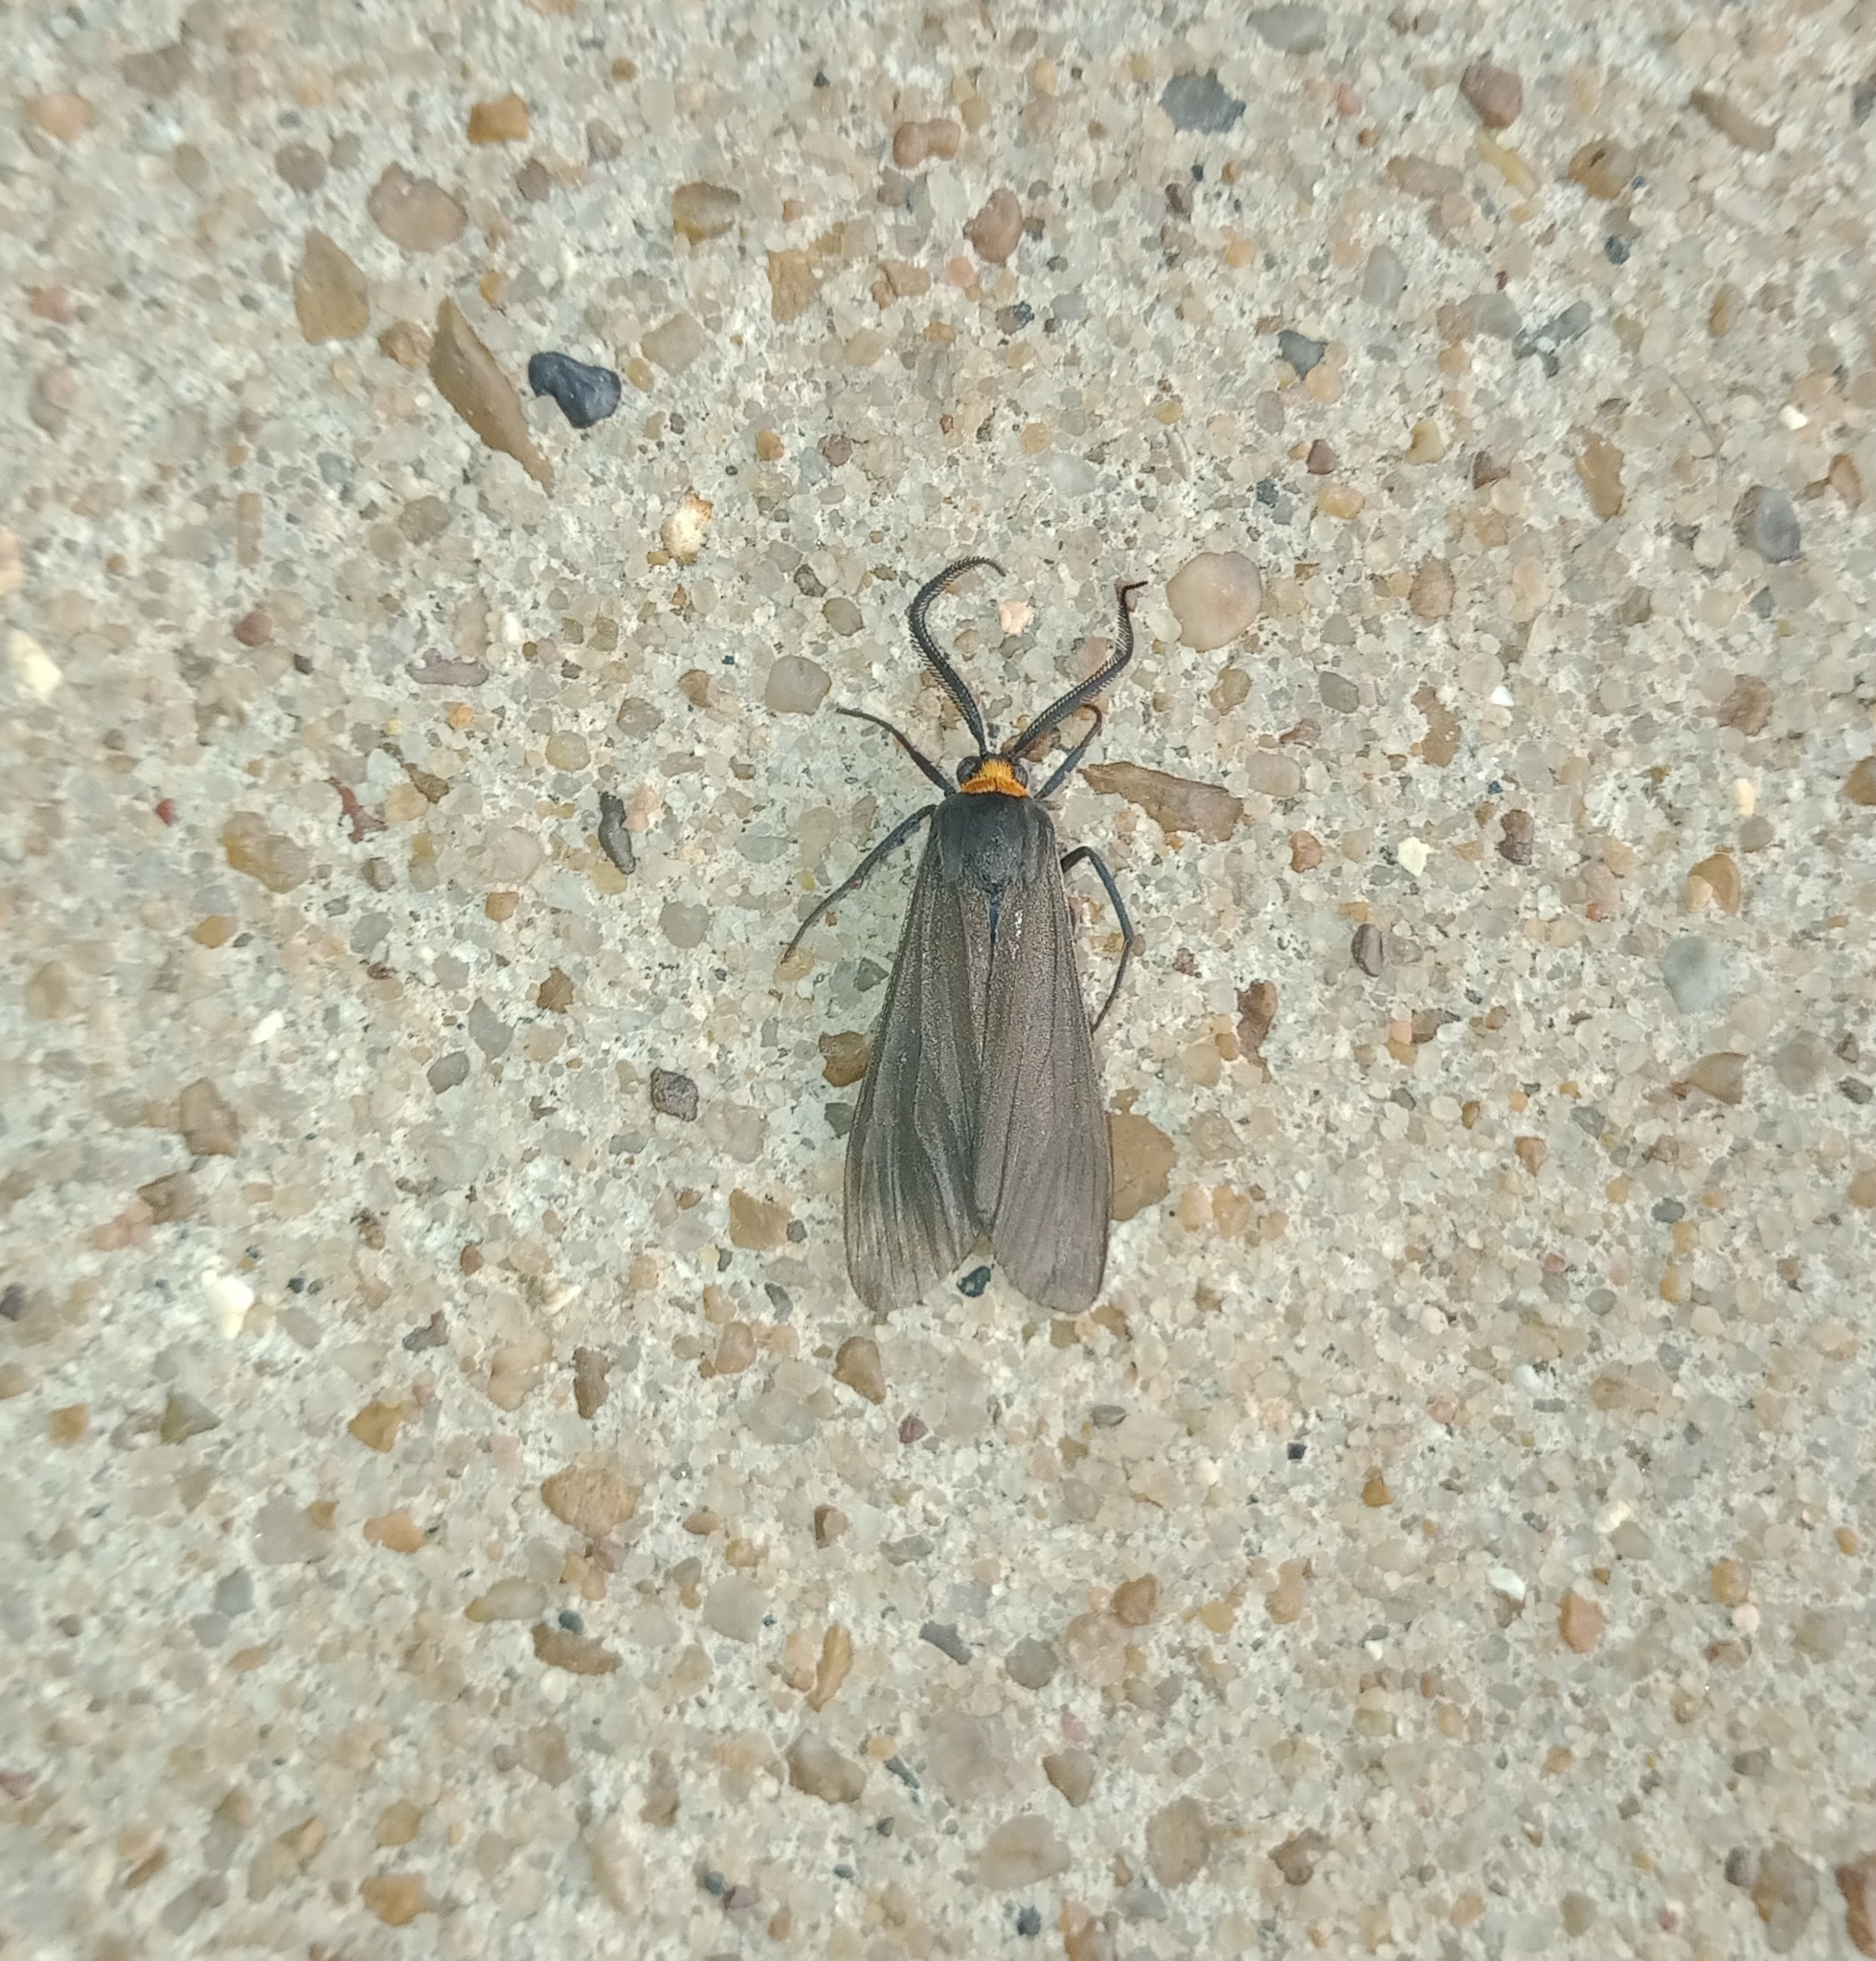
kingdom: Animalia
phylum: Arthropoda
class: Insecta
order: Lepidoptera
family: Erebidae
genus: Cisseps
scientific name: Cisseps fulvicollis
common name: Yellow-collared scape moth
